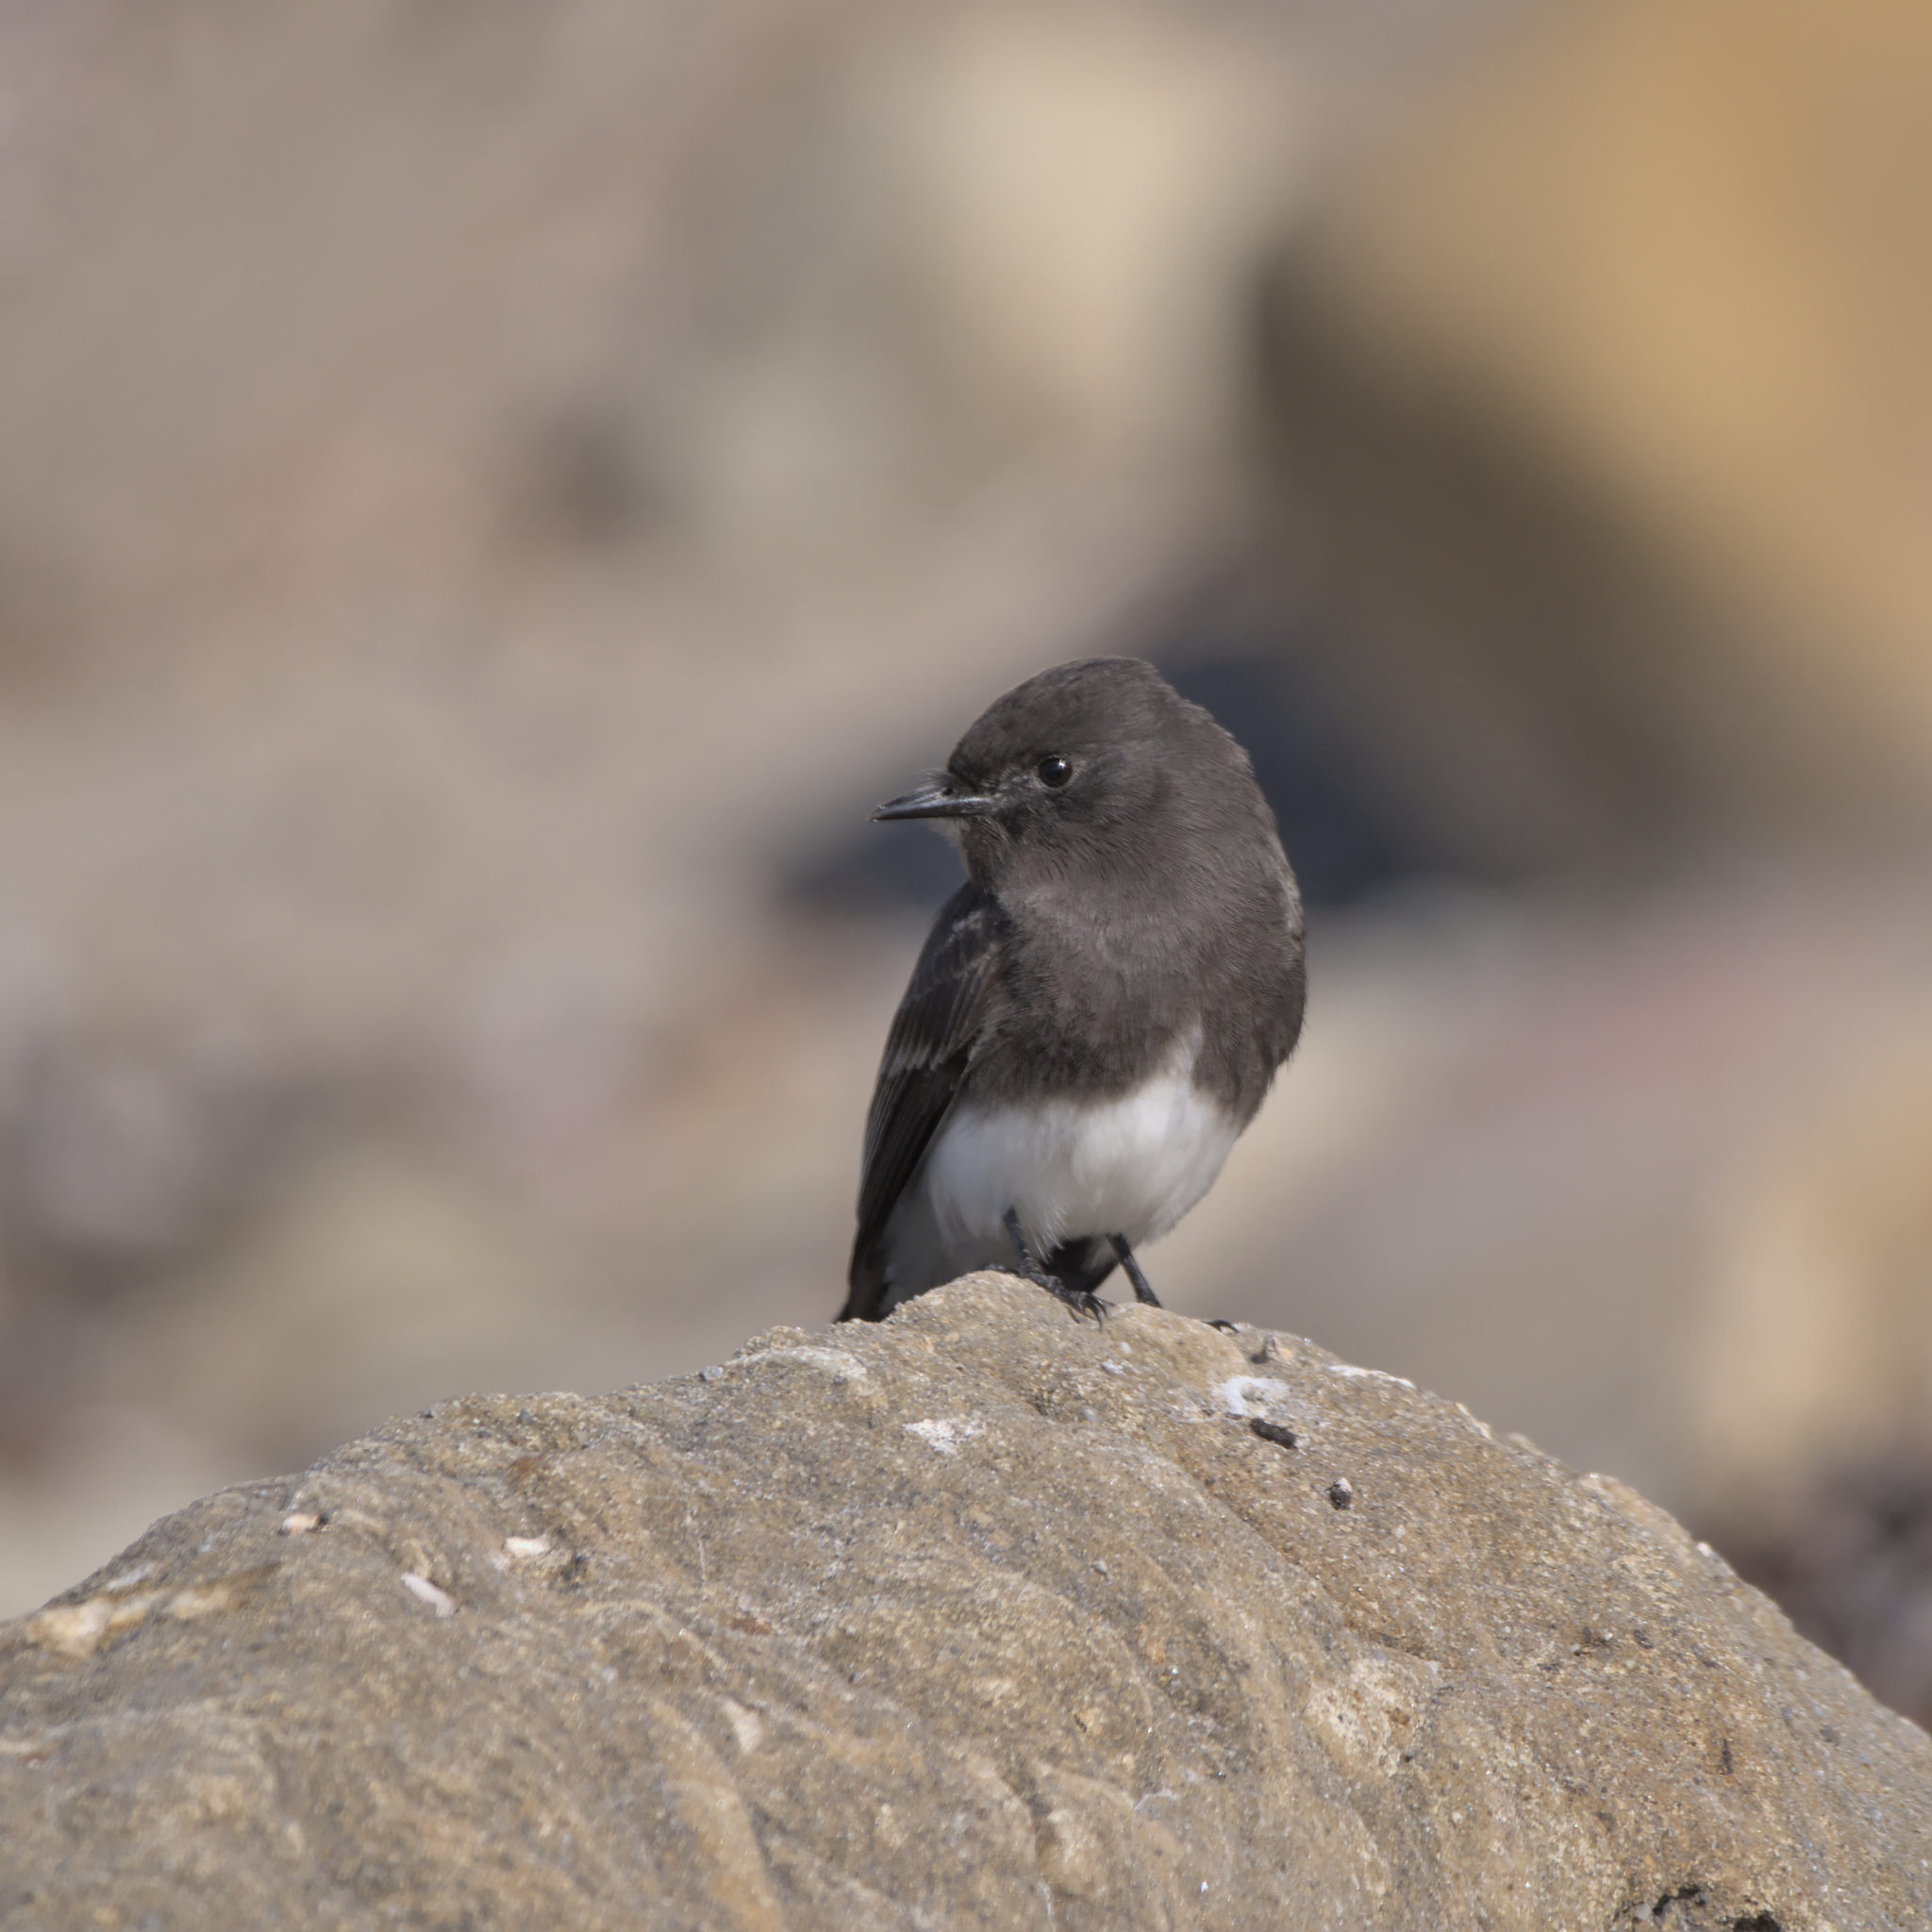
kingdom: Animalia
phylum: Chordata
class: Aves
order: Passeriformes
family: Tyrannidae
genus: Sayornis
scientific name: Sayornis nigricans
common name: Black phoebe
